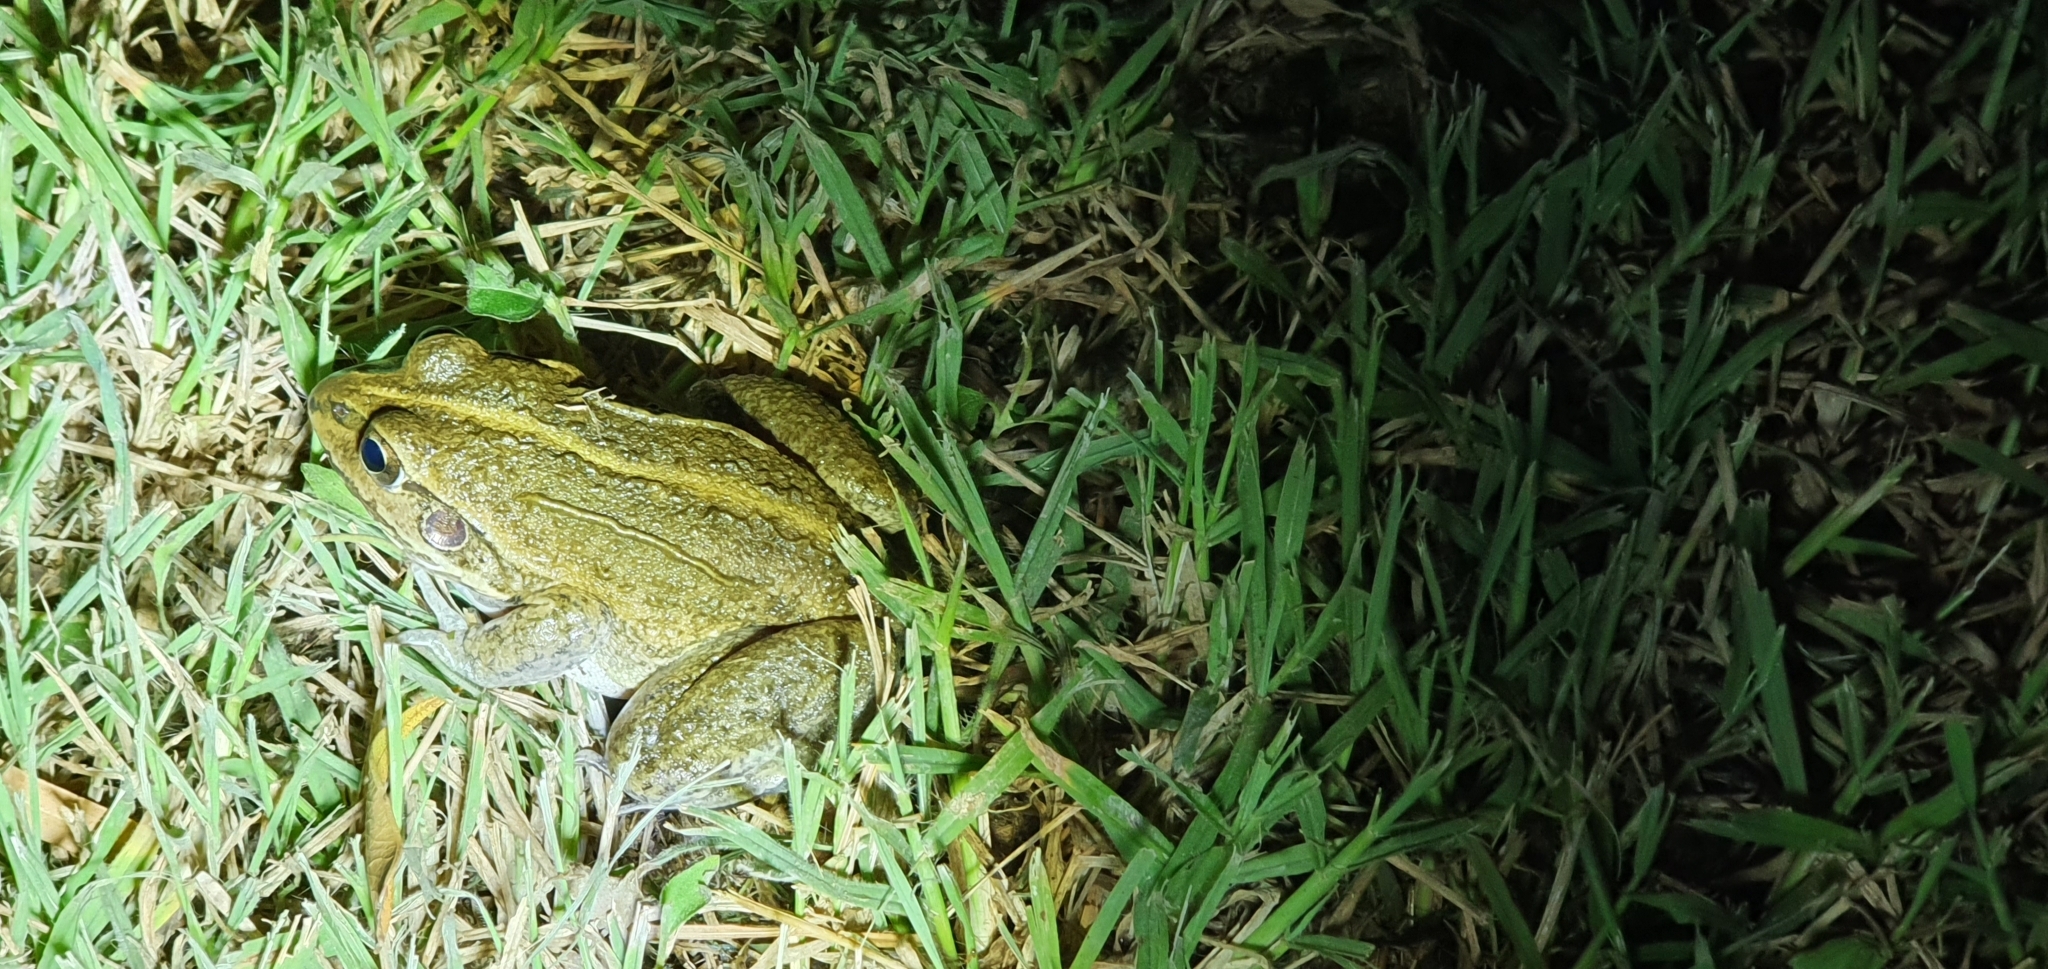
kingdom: Animalia
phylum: Chordata
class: Amphibia
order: Anura
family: Pelodryadidae
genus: Ranoidea
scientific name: Ranoidea alboguttata
